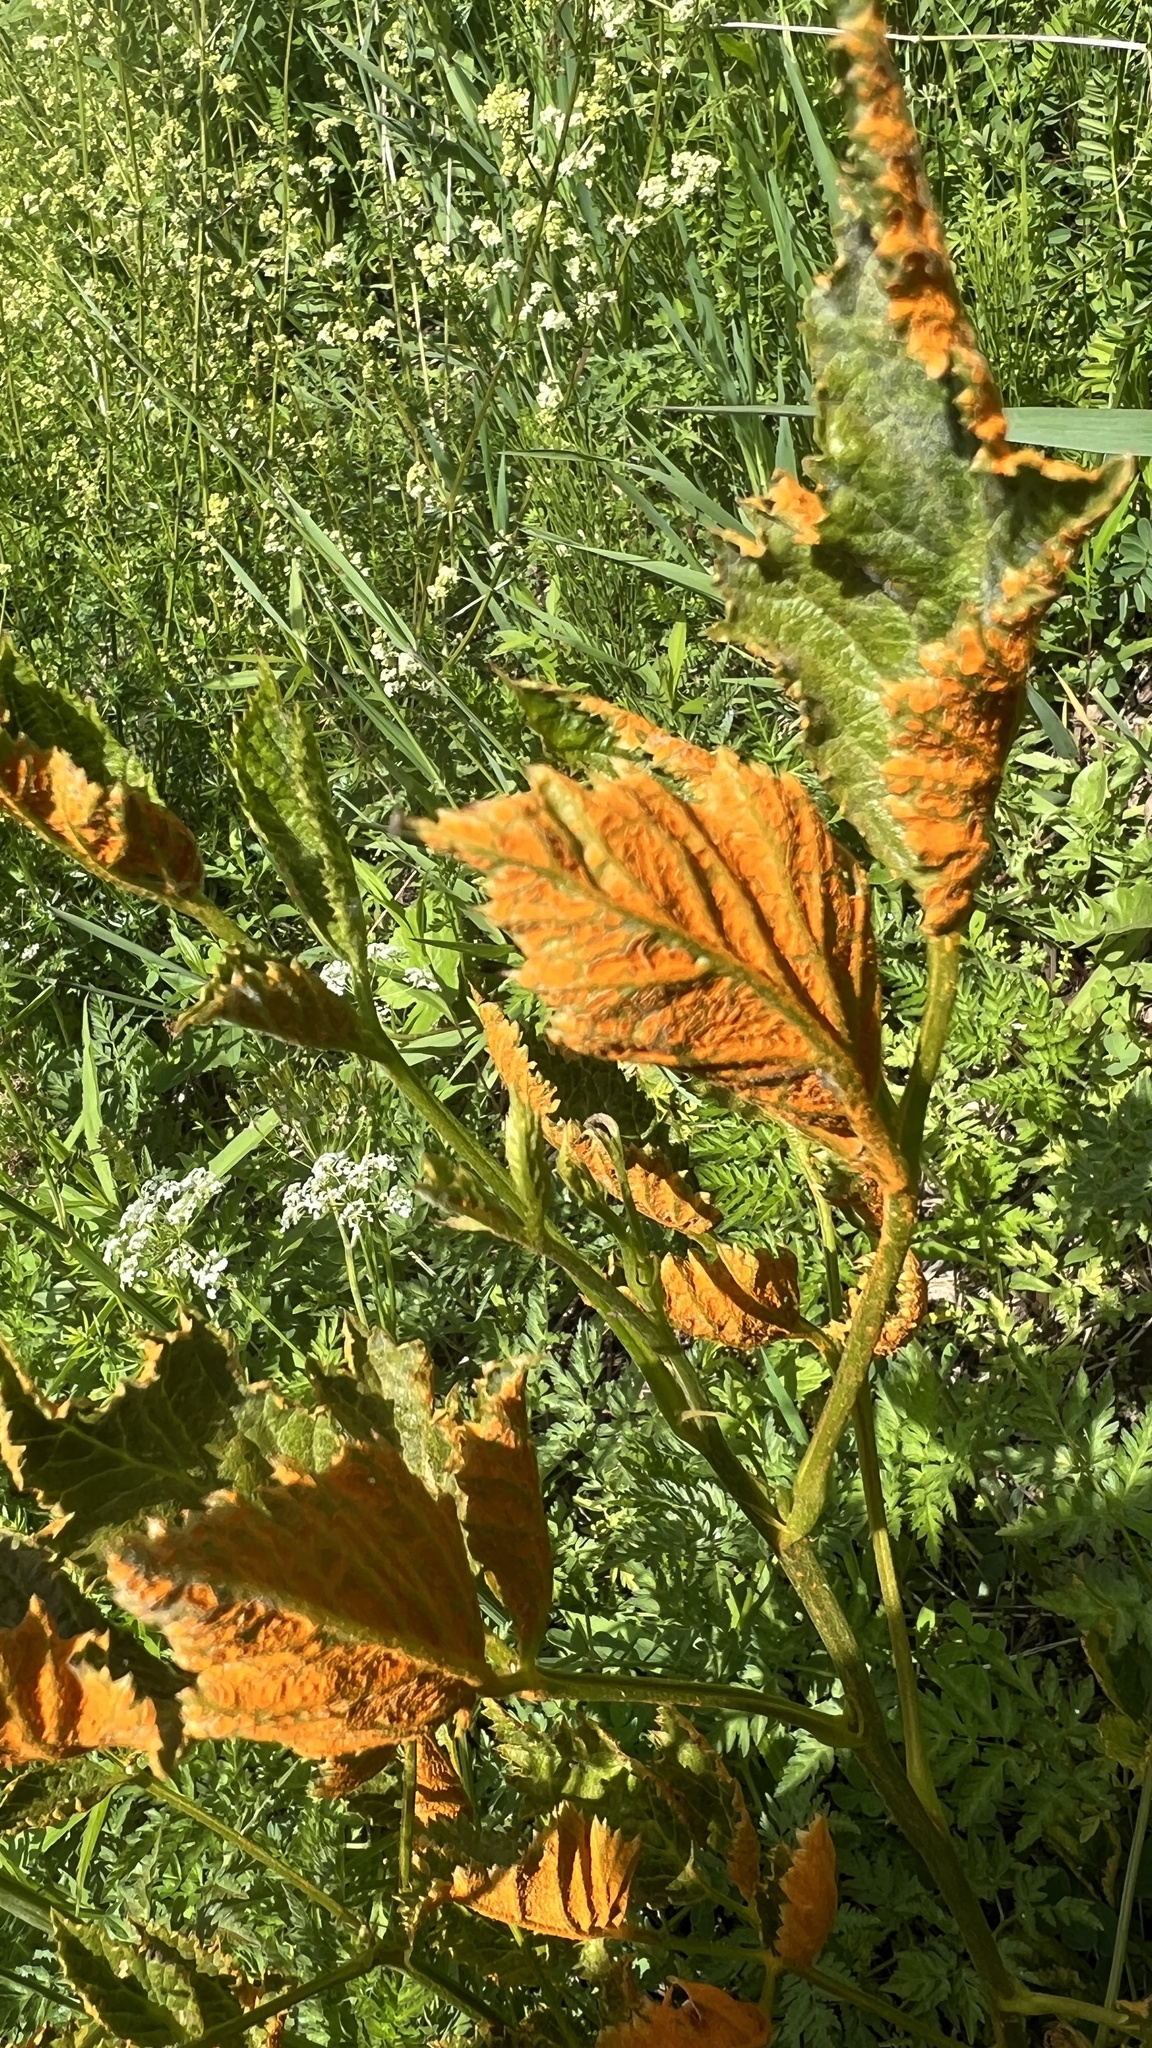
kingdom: Fungi
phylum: Basidiomycota
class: Pucciniomycetes
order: Pucciniales
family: Phragmidiaceae
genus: Arthuriomyces
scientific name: Arthuriomyces peckianus
